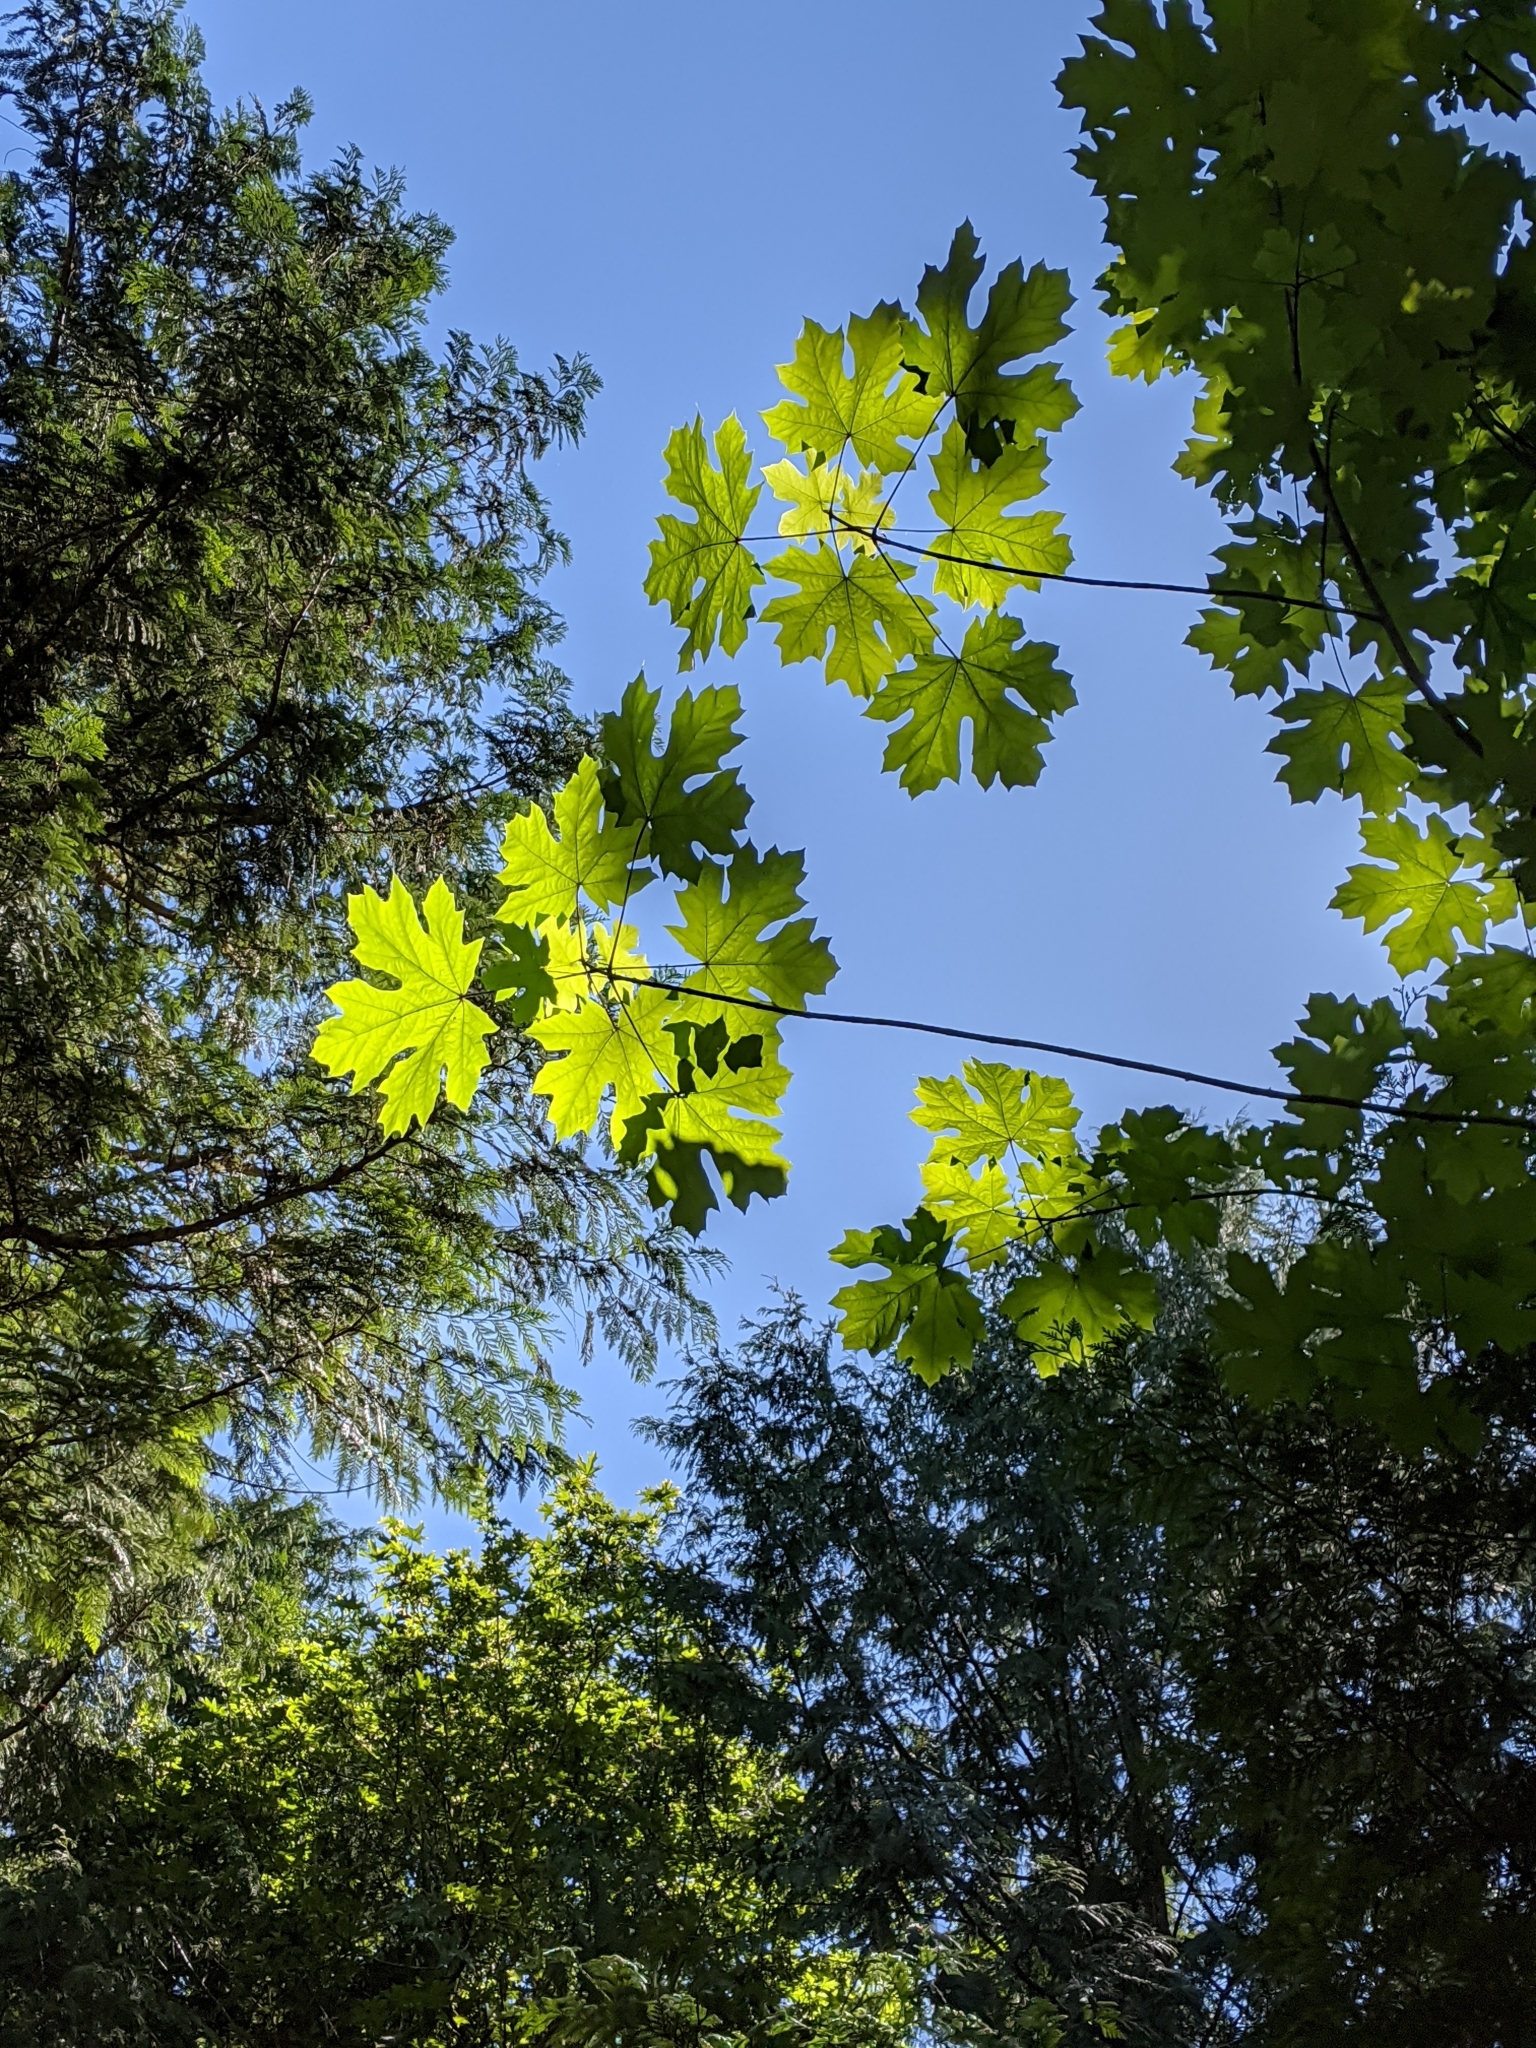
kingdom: Plantae
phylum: Tracheophyta
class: Magnoliopsida
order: Sapindales
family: Sapindaceae
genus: Acer
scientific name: Acer macrophyllum
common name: Oregon maple
